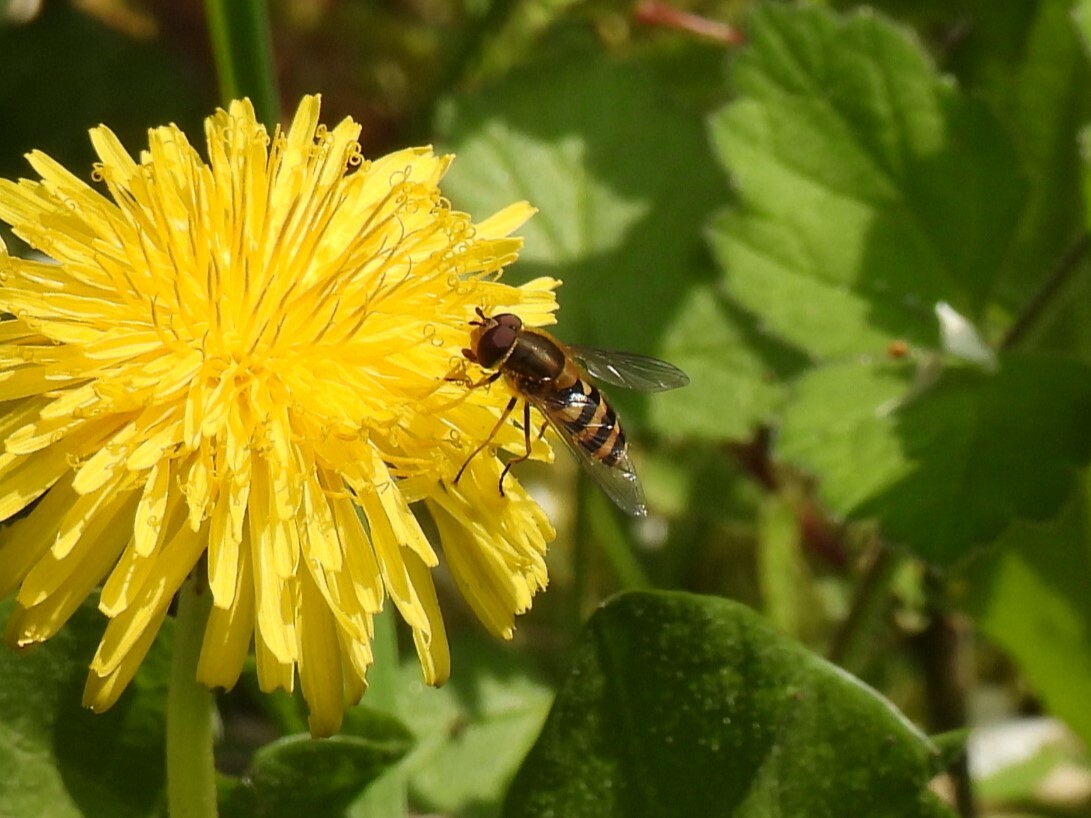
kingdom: Animalia
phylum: Arthropoda
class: Insecta
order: Diptera
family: Syrphidae
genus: Syrphus
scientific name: Syrphus
